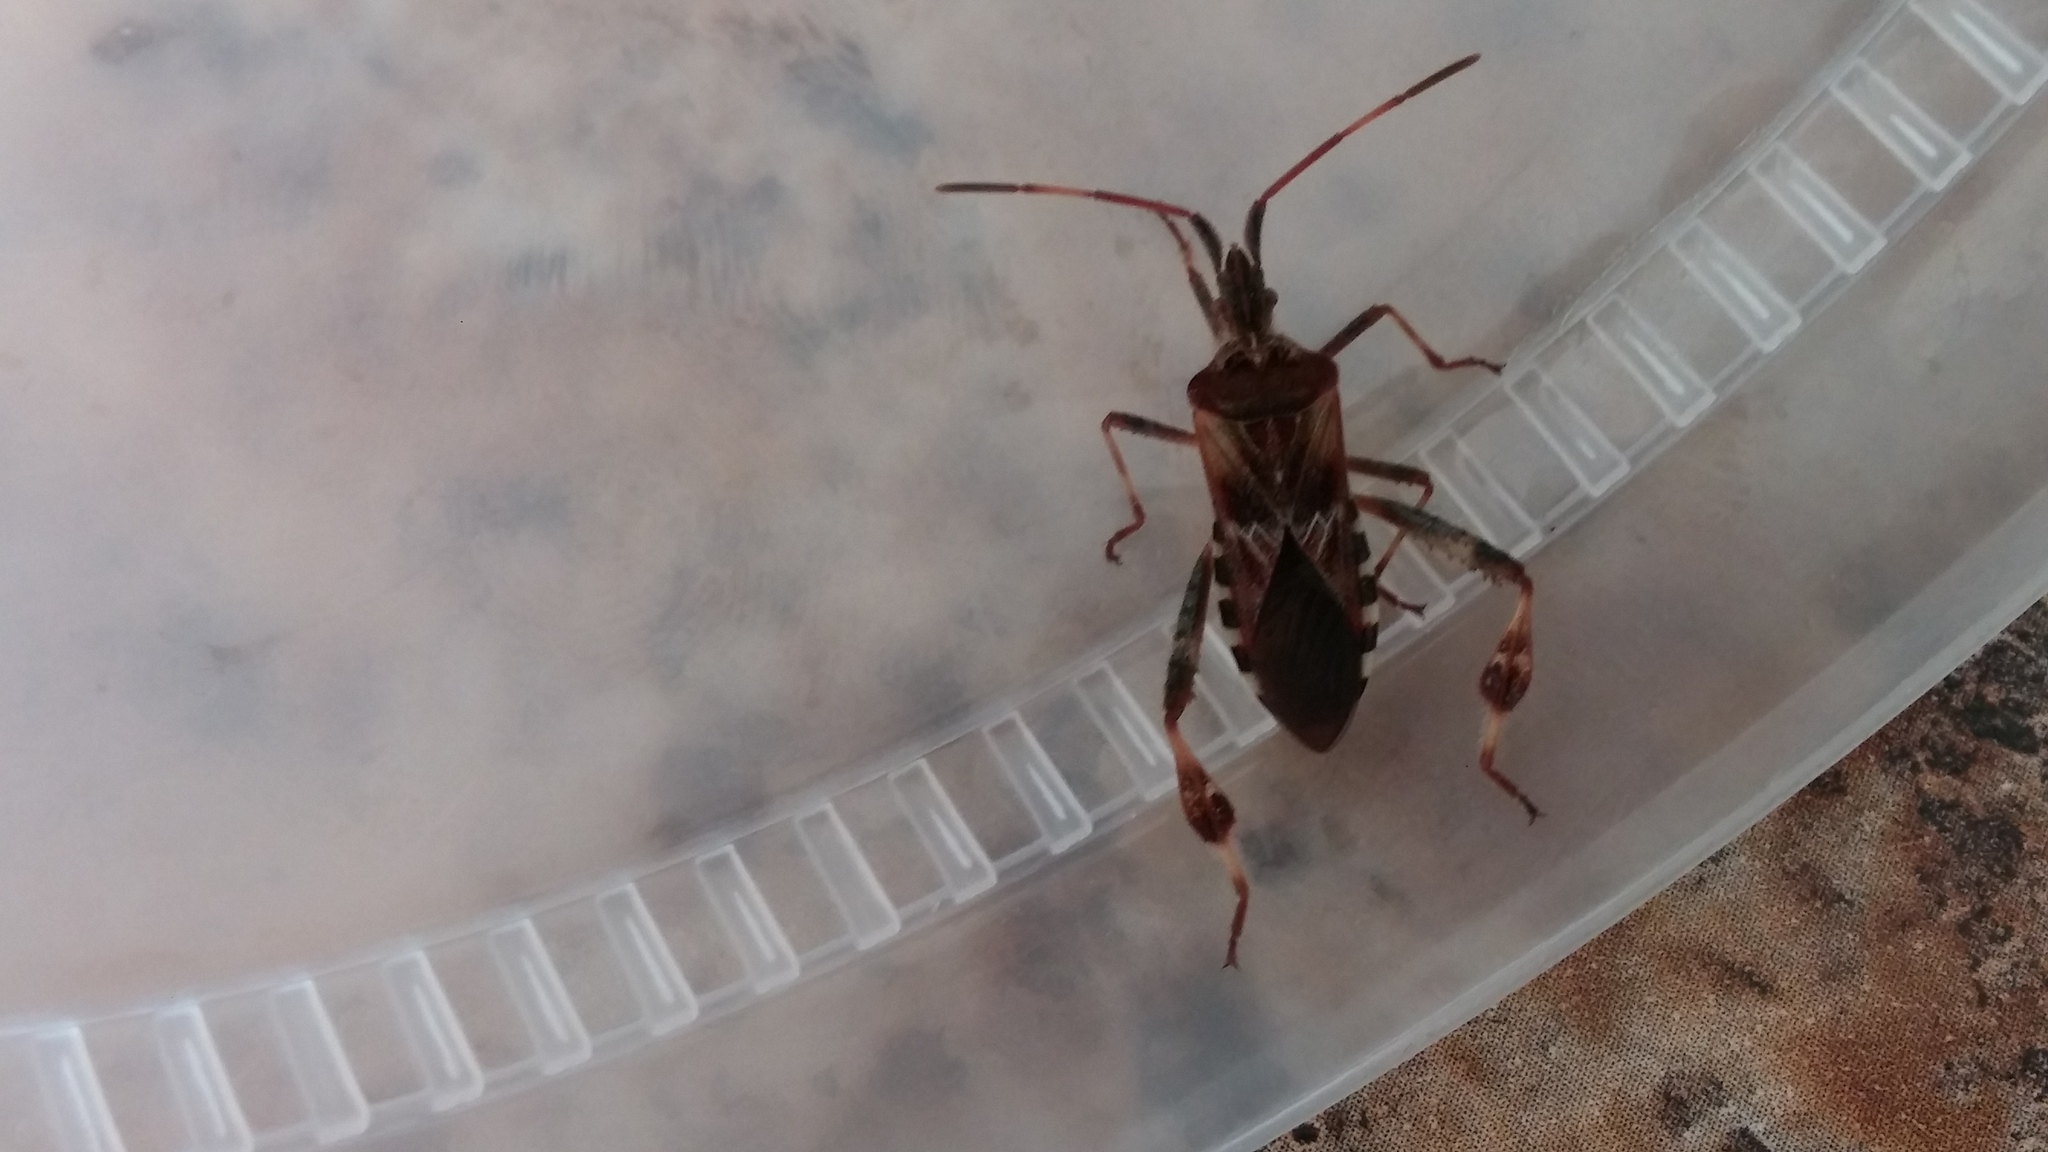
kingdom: Animalia
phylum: Arthropoda
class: Insecta
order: Hemiptera
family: Coreidae
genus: Leptoglossus
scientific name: Leptoglossus occidentalis
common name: Western conifer-seed bug
